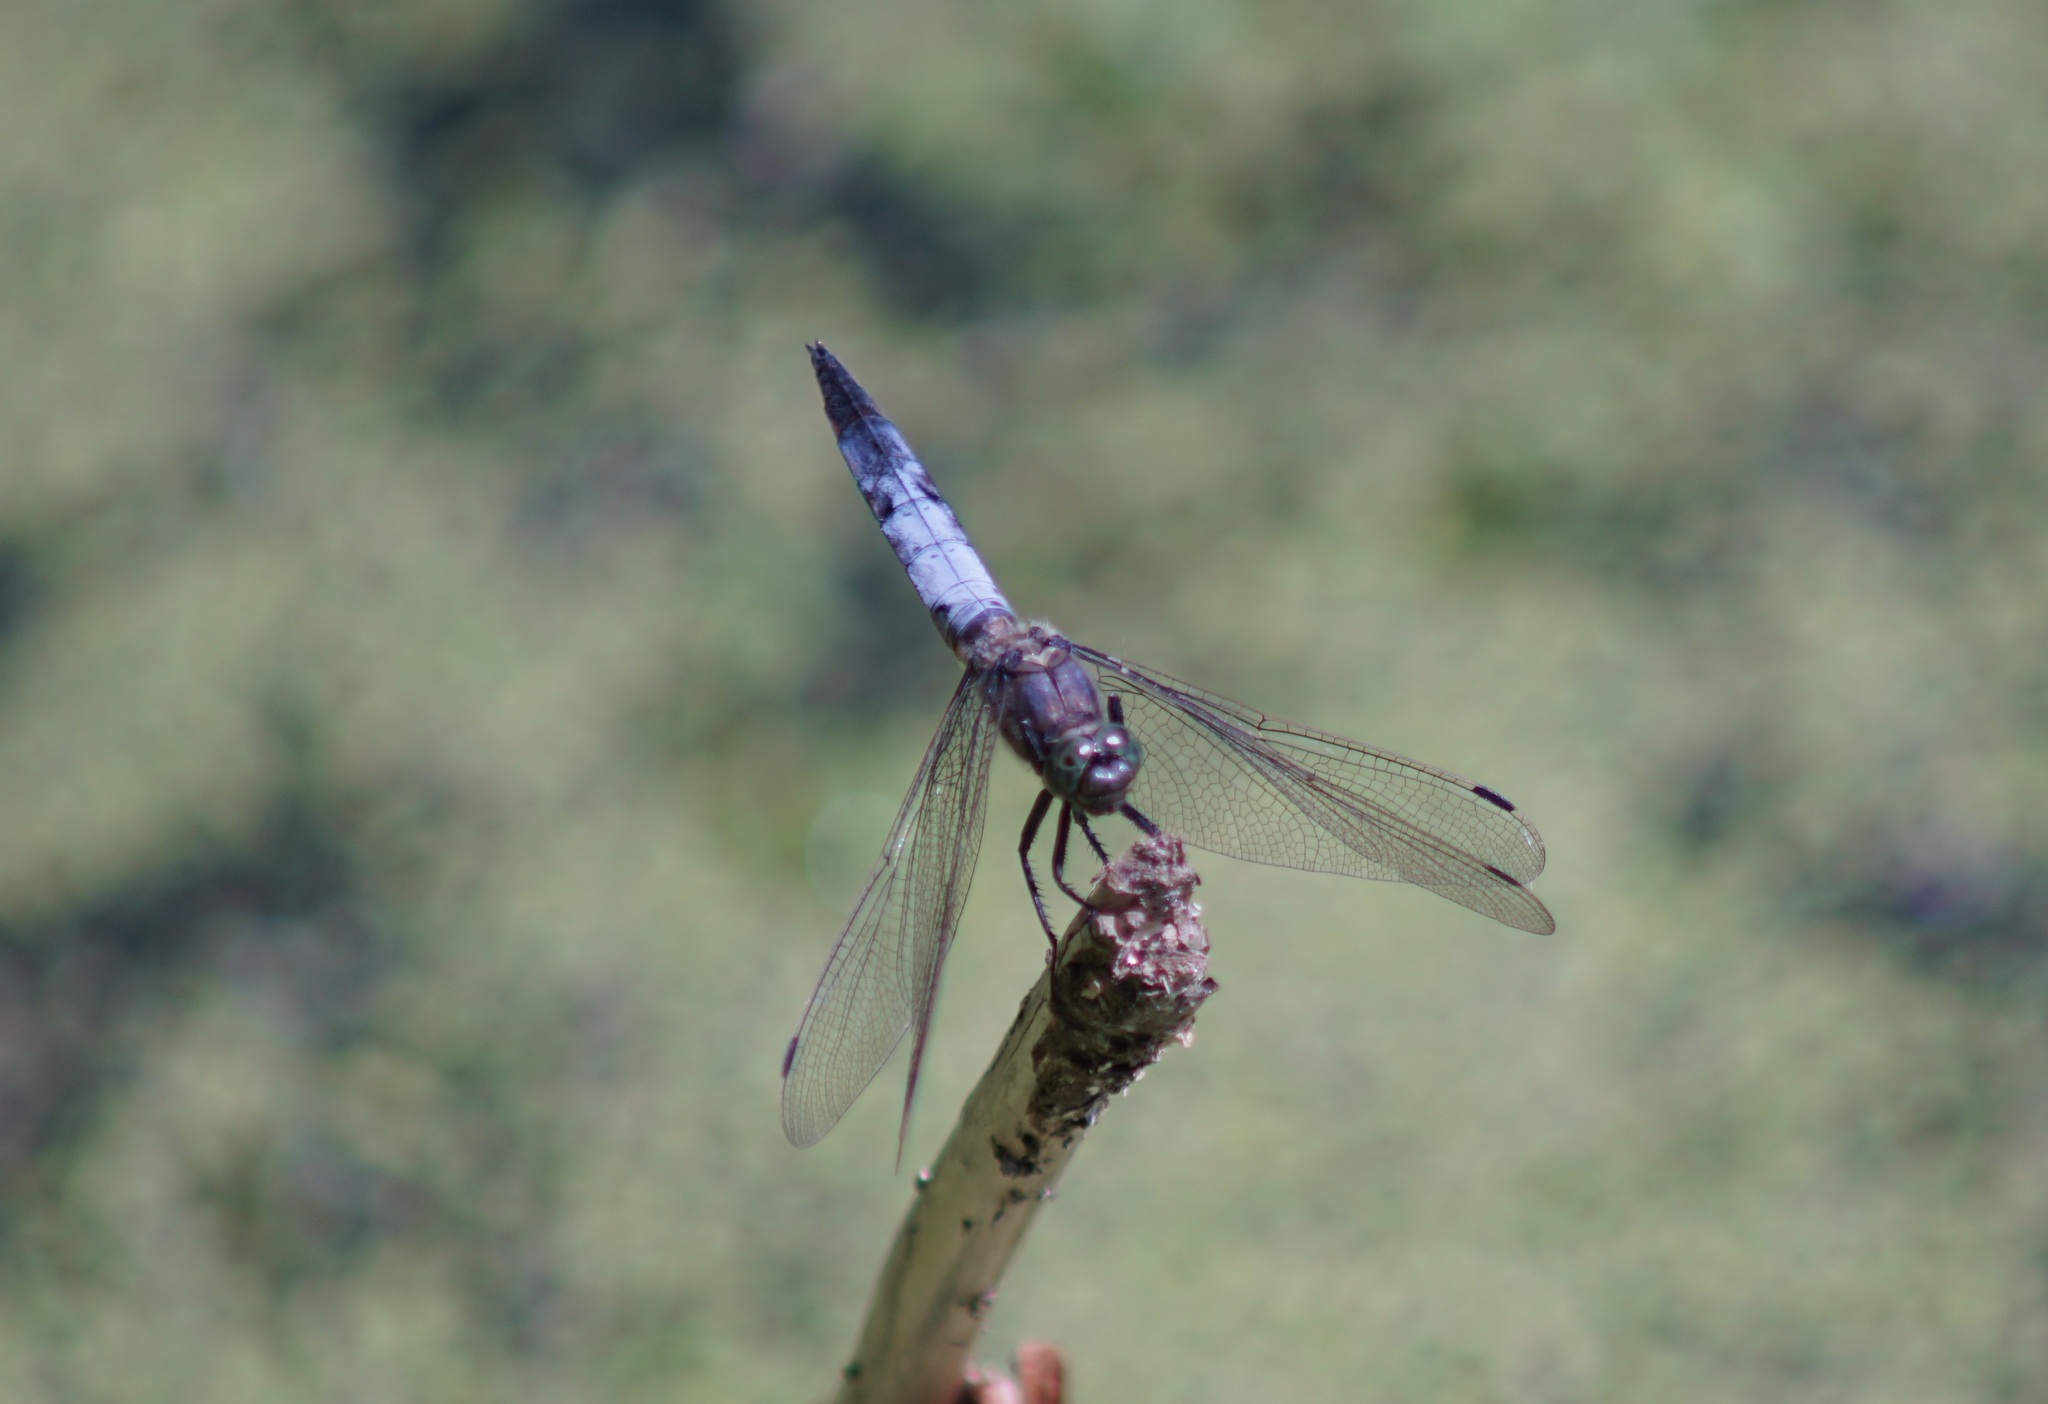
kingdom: Animalia
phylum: Arthropoda
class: Insecta
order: Odonata
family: Libellulidae
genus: Orthetrum
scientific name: Orthetrum cancellatum
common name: Black-tailed skimmer
